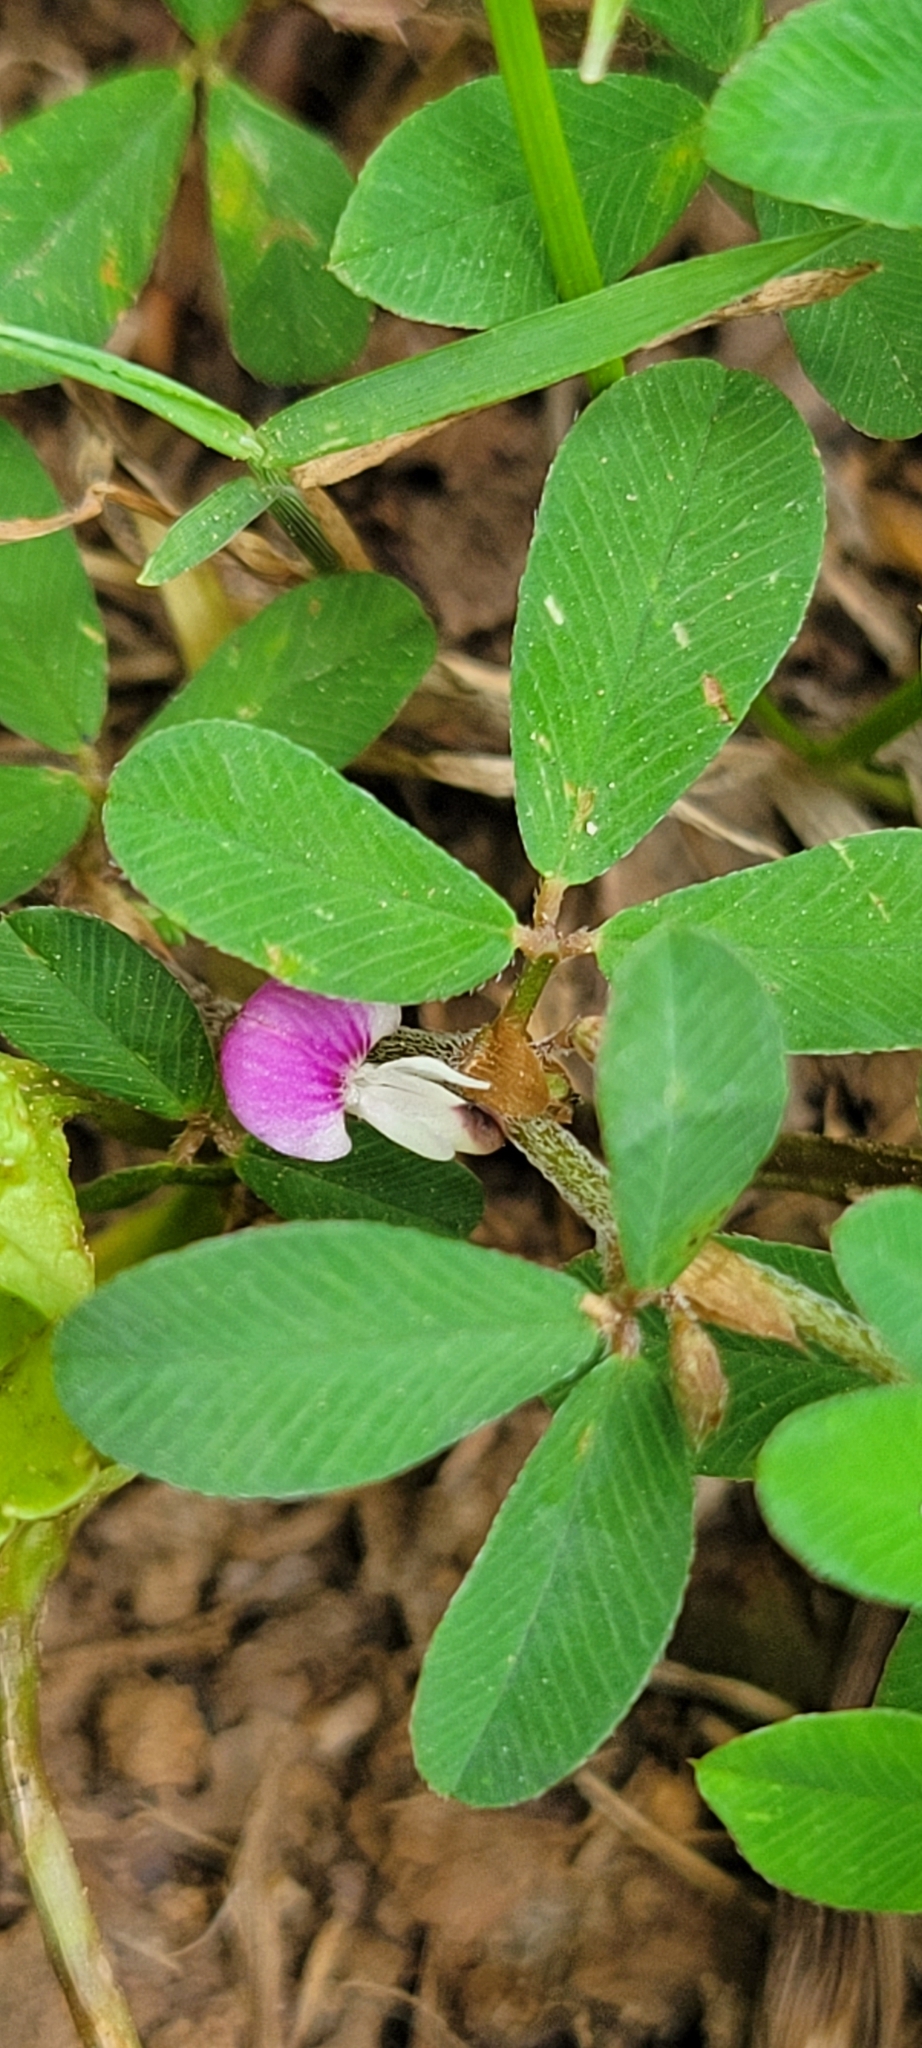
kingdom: Plantae
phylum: Tracheophyta
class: Magnoliopsida
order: Fabales
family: Fabaceae
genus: Kummerowia
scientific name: Kummerowia striata
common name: Japanese clover
